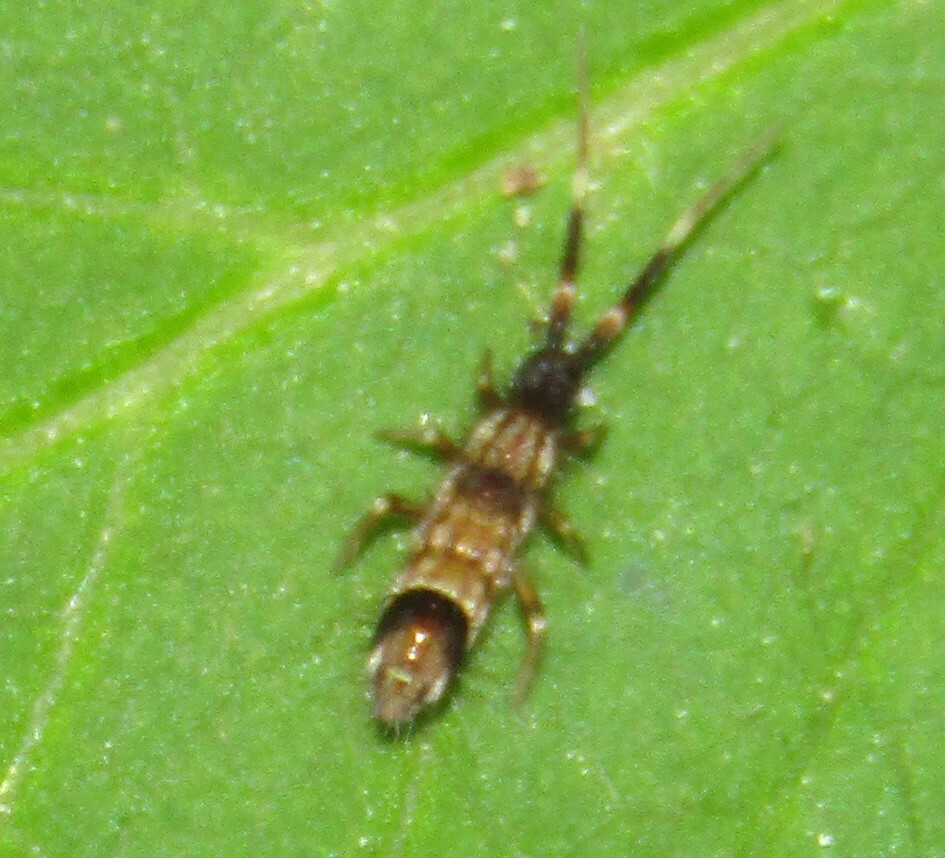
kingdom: Animalia
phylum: Arthropoda
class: Collembola
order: Entomobryomorpha
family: Entomobryidae
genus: Entomobrya
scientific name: Entomobrya nivalis
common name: Cosmopolitan springtail
